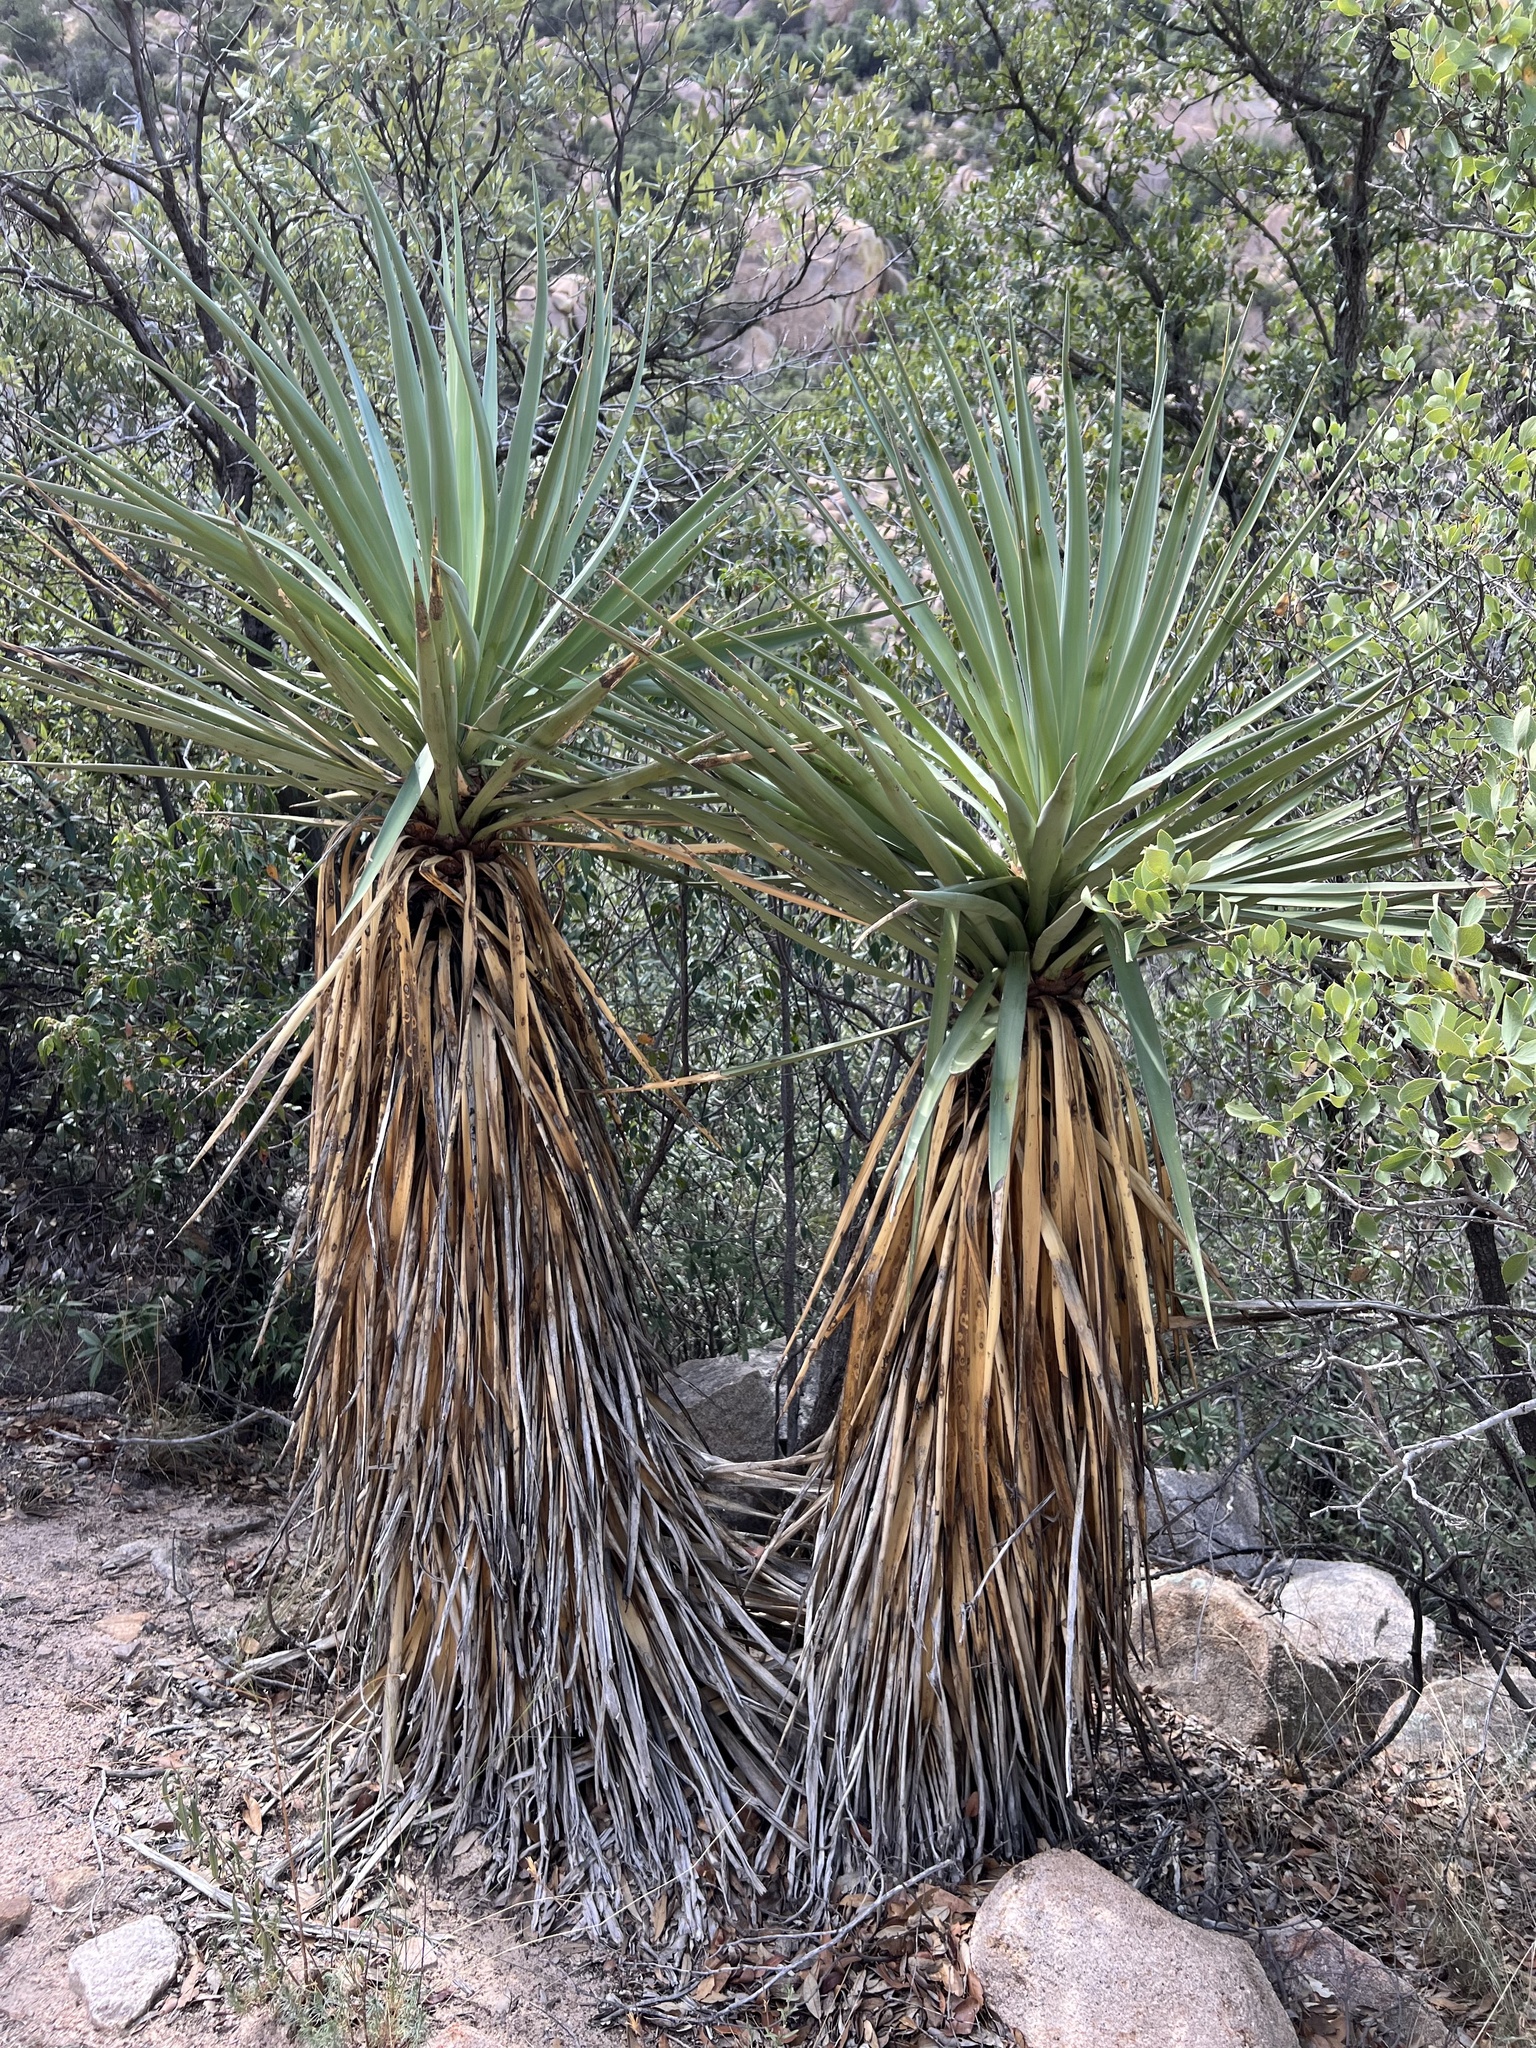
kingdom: Plantae
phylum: Tracheophyta
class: Liliopsida
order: Asparagales
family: Asparagaceae
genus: Yucca
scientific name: Yucca schottii
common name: Hoary yucca
